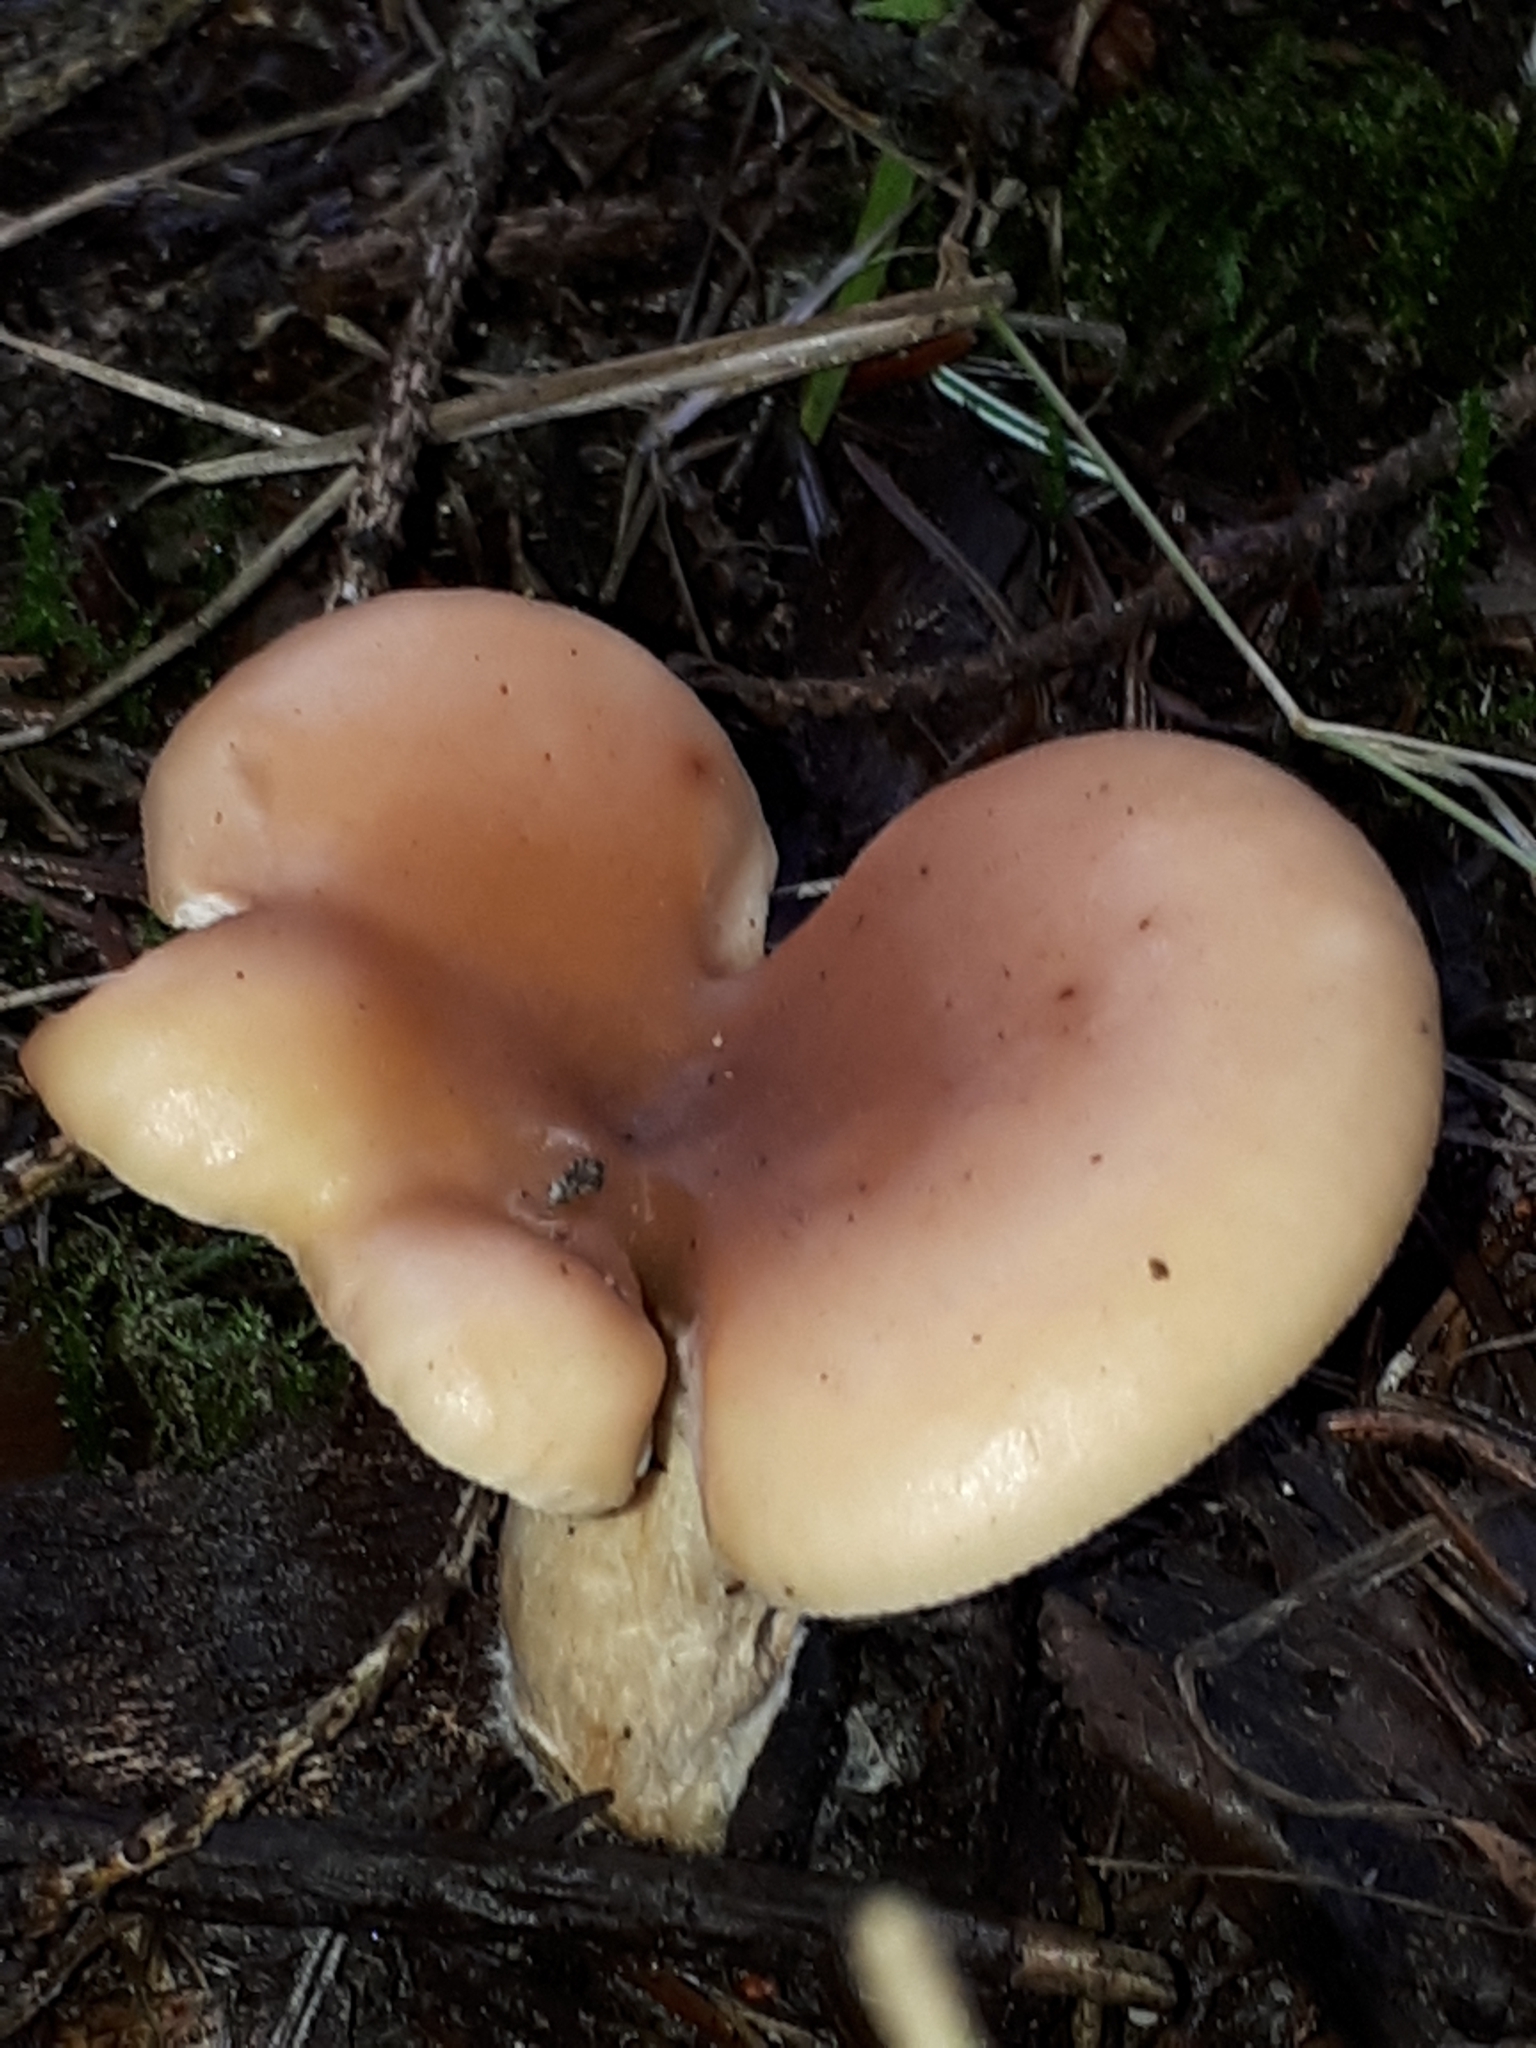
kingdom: Fungi
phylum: Basidiomycota
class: Agaricomycetes
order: Agaricales
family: Tricholomataceae
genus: Paralepista
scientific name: Paralepista flaccida
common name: Tawny funnel cap
